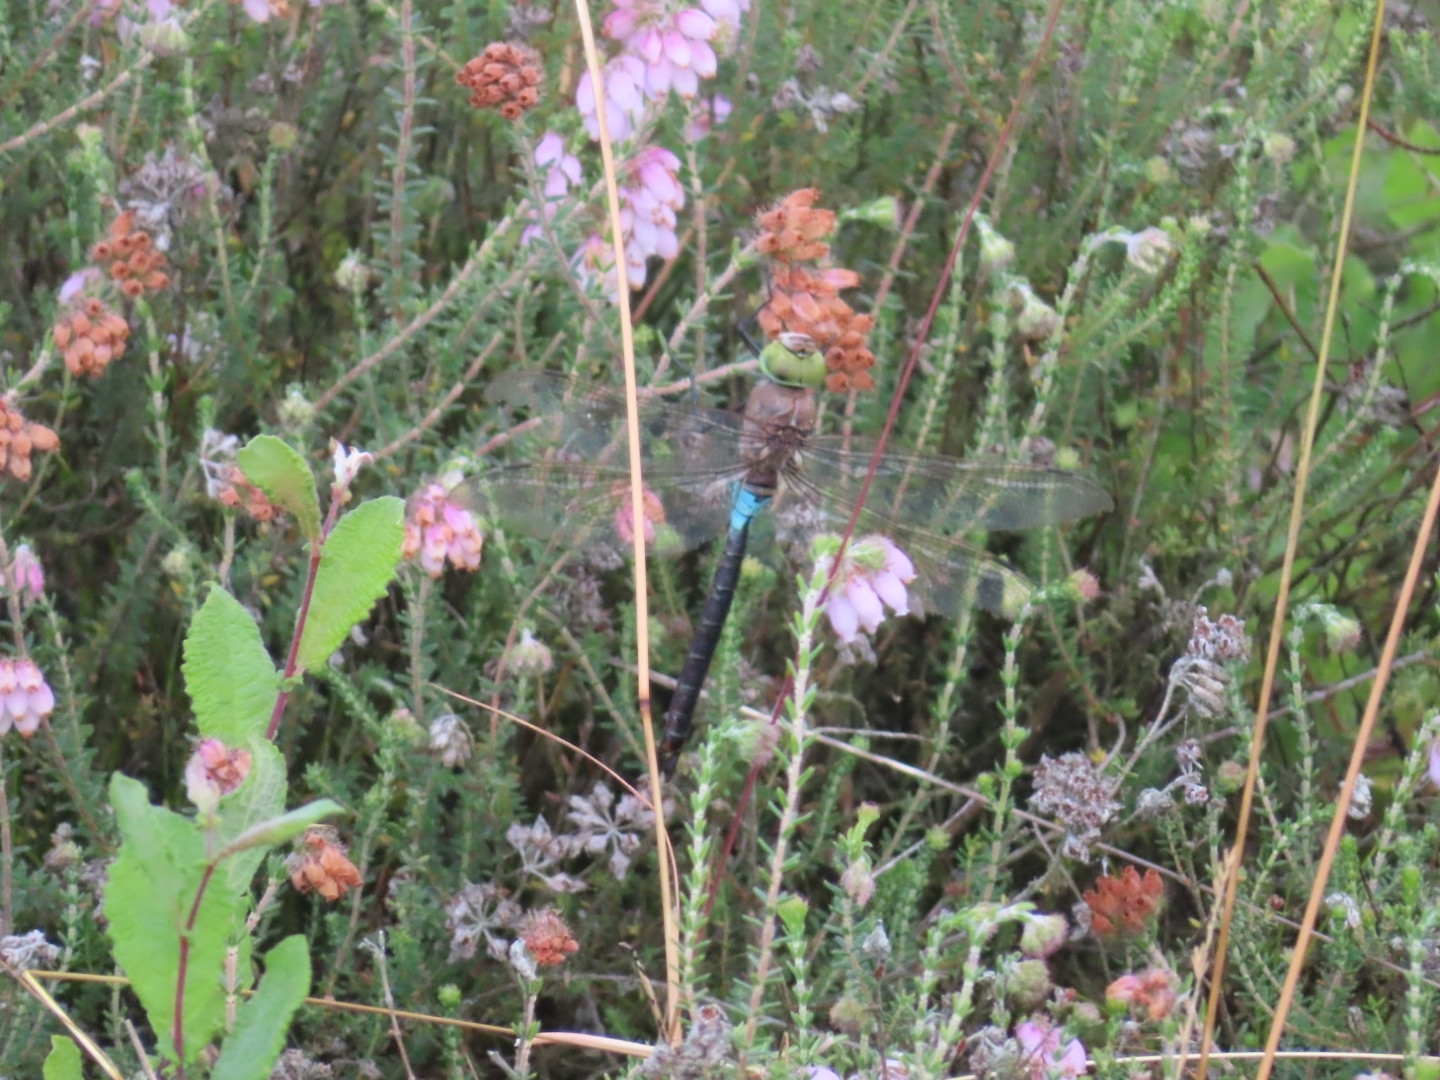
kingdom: Animalia
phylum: Arthropoda
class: Insecta
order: Odonata
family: Aeshnidae
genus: Anax
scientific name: Anax parthenope
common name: Lesser emperor
